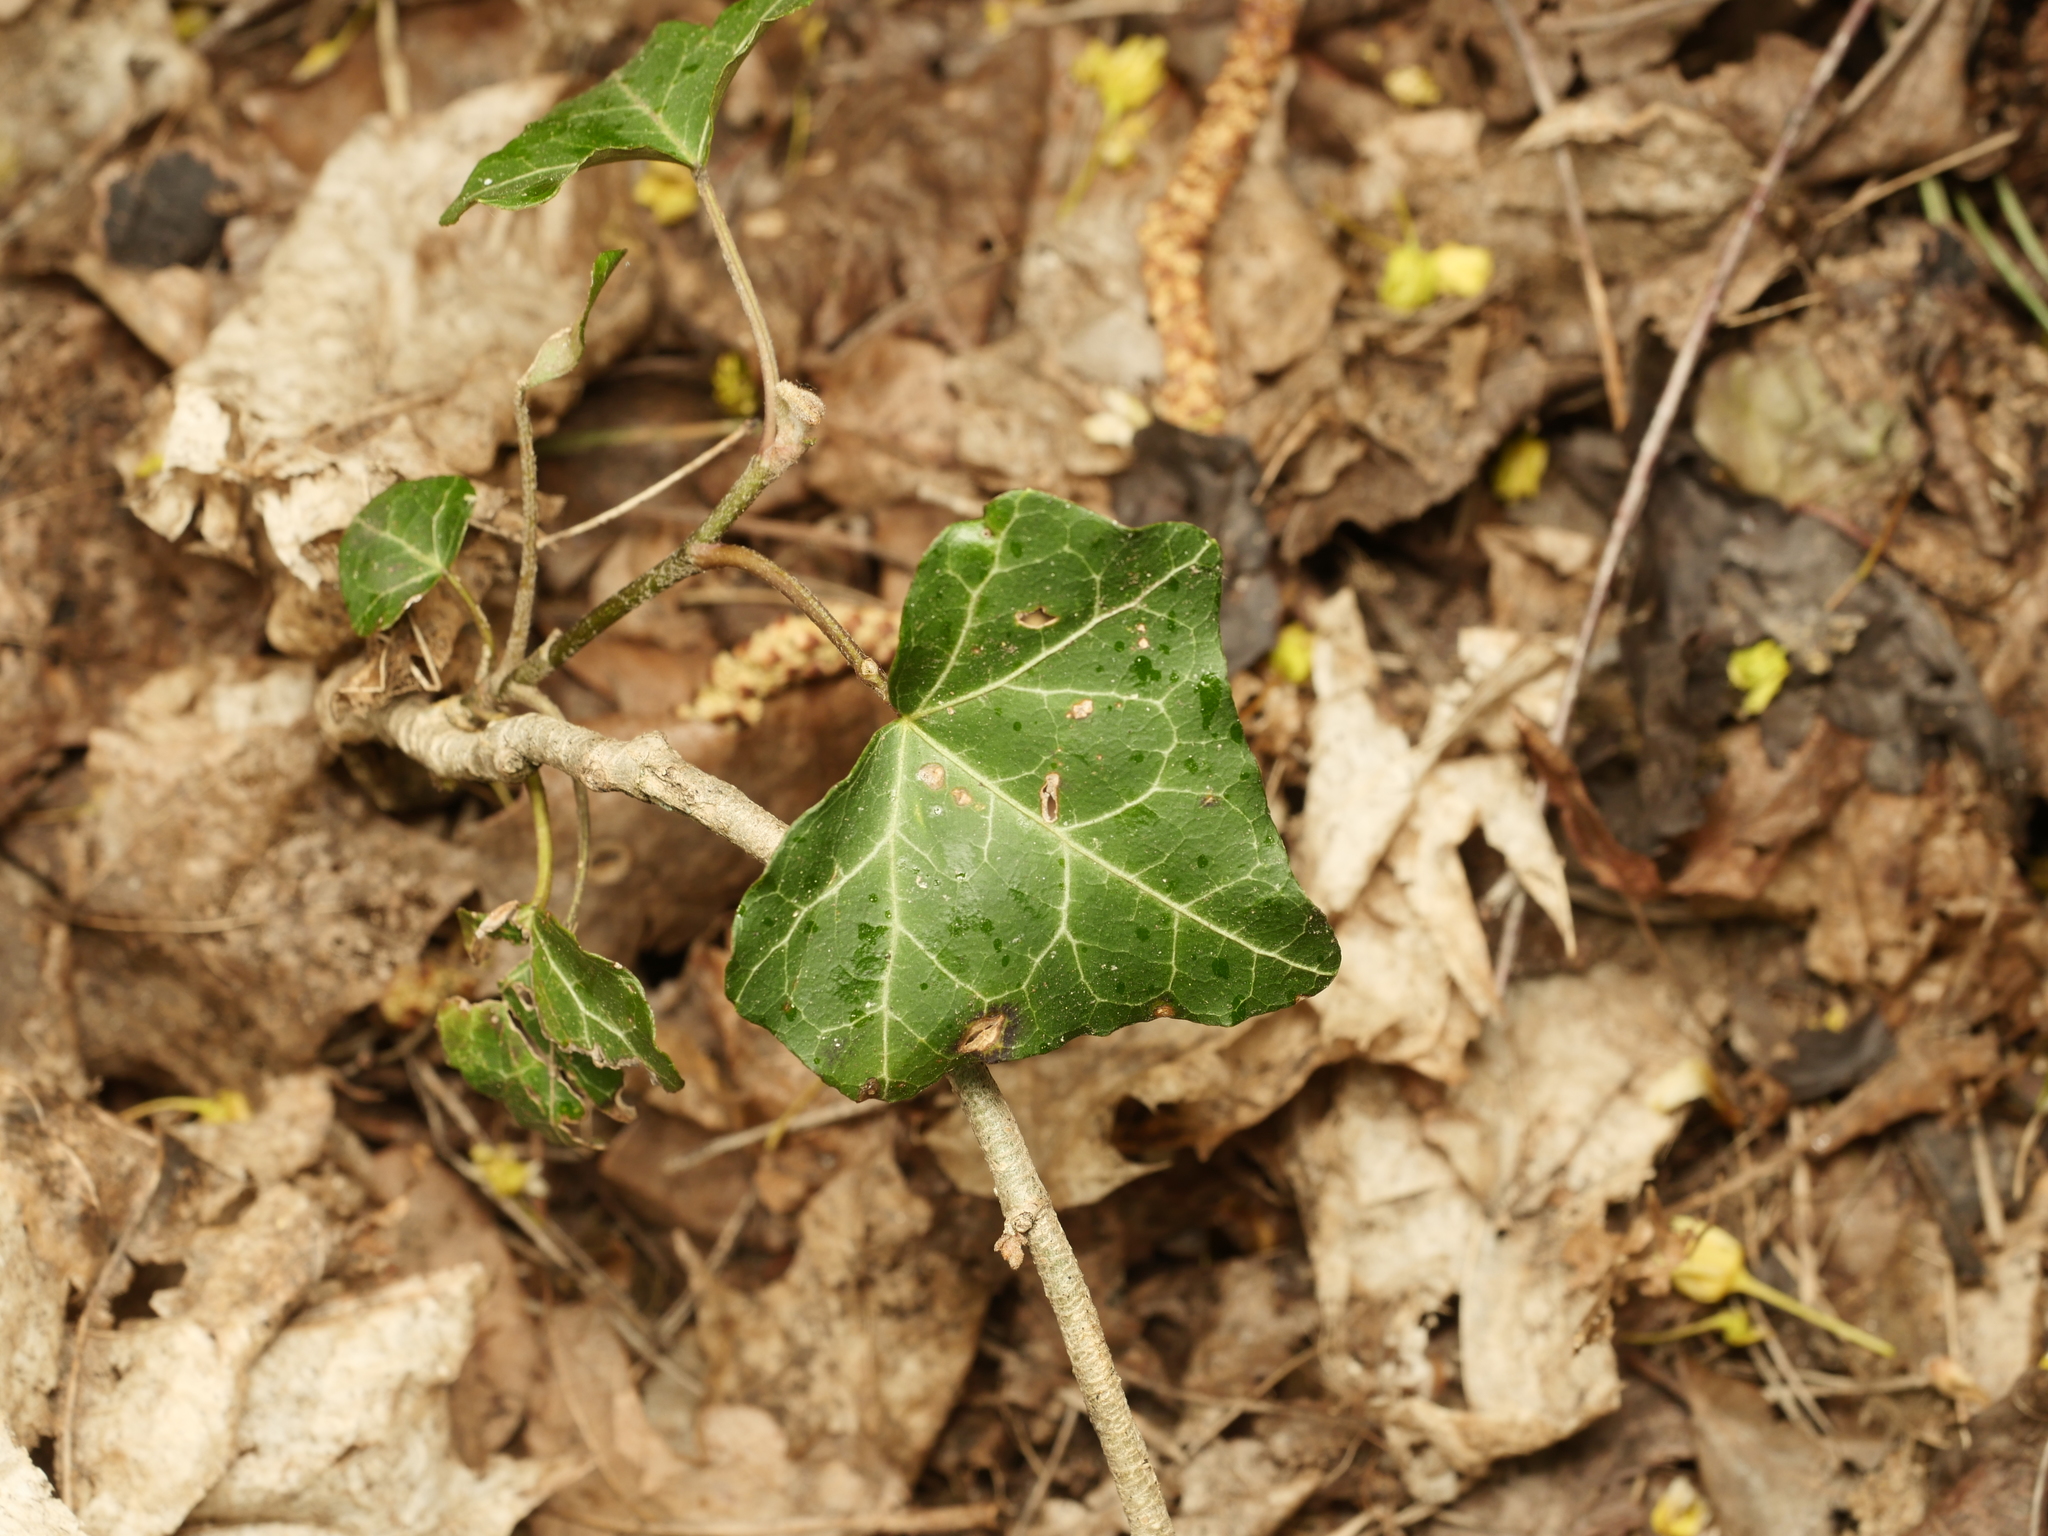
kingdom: Plantae
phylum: Tracheophyta
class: Magnoliopsida
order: Apiales
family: Araliaceae
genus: Hedera
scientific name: Hedera helix
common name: Ivy
